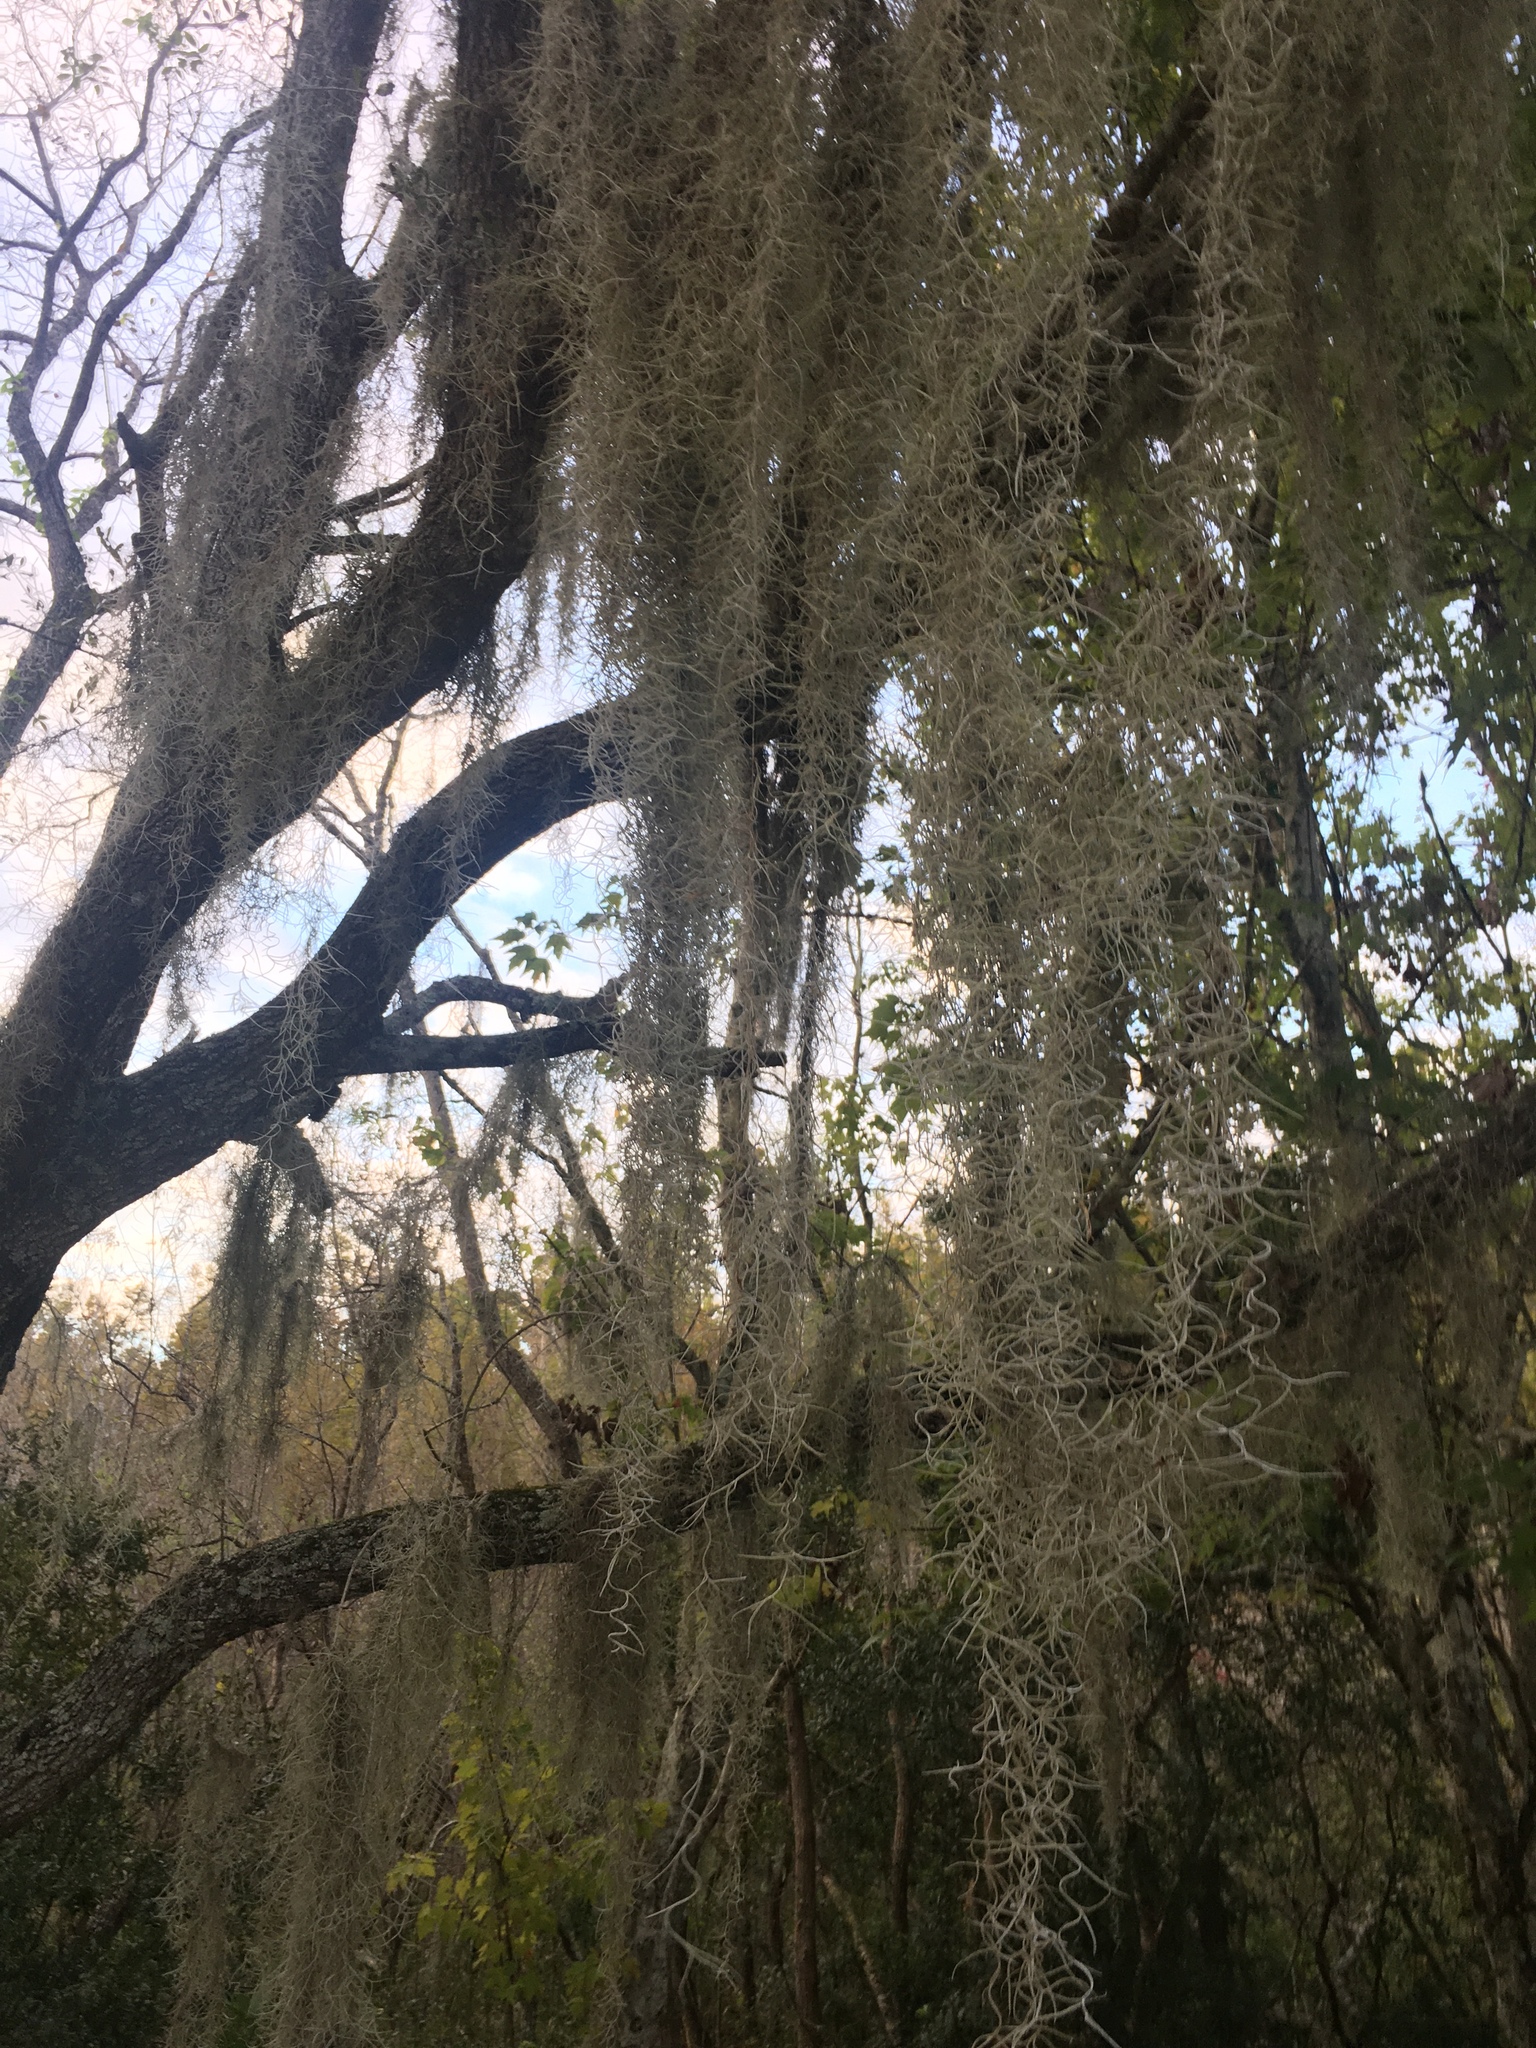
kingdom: Plantae
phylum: Tracheophyta
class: Liliopsida
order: Poales
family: Bromeliaceae
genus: Tillandsia
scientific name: Tillandsia usneoides
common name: Spanish moss
